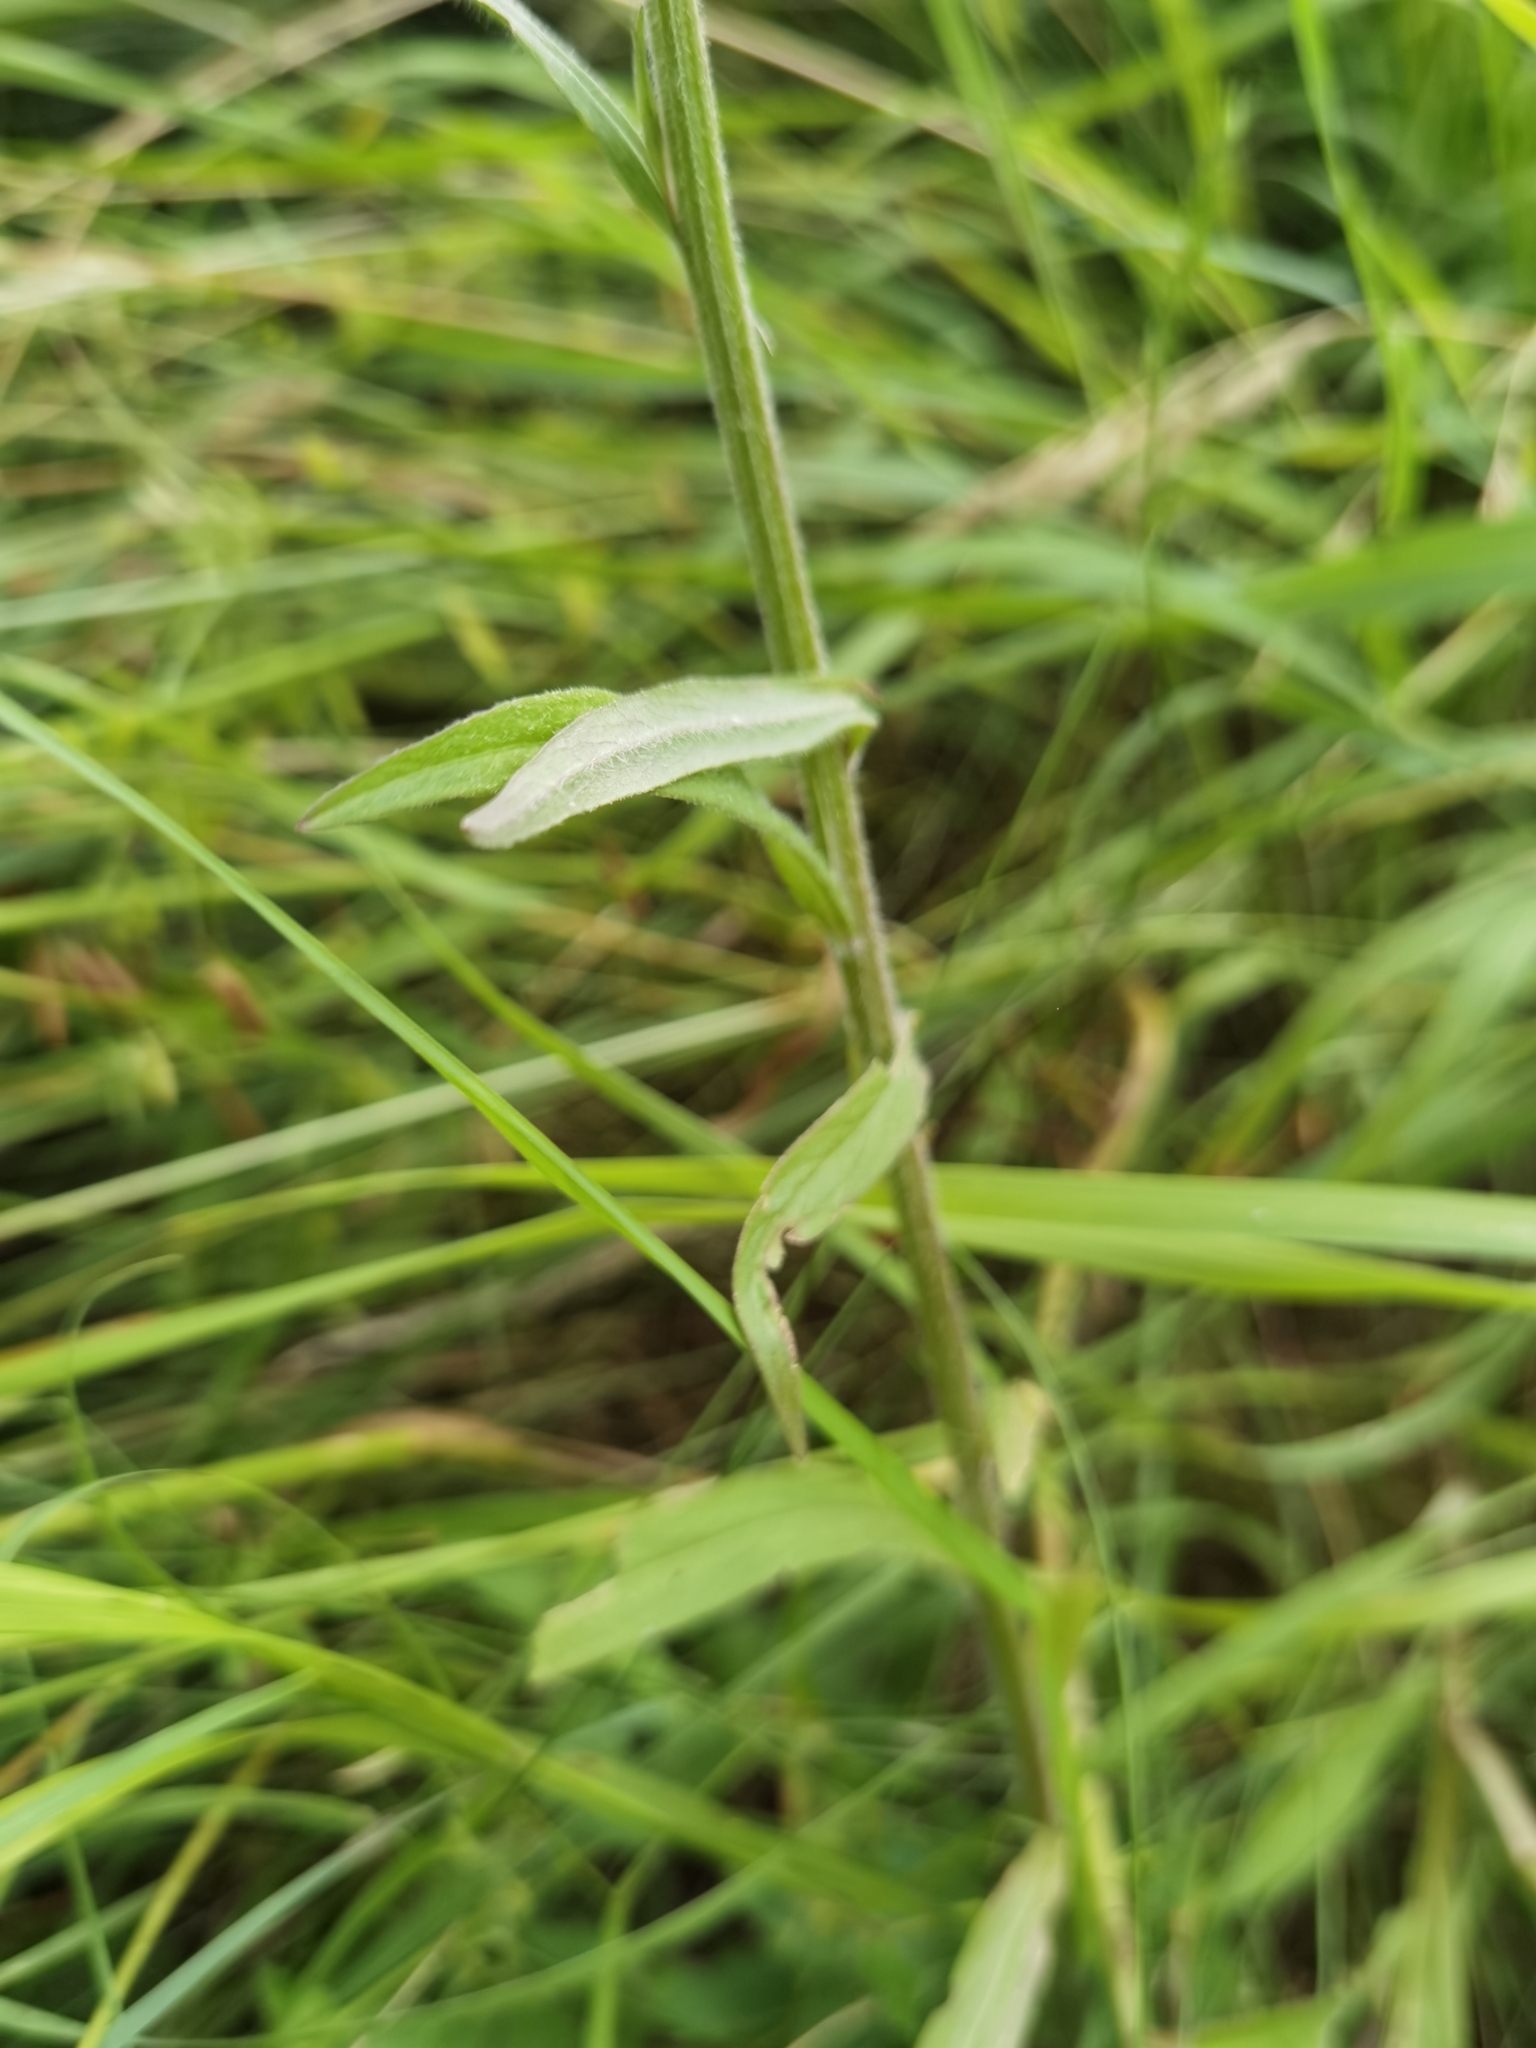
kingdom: Plantae
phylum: Tracheophyta
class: Magnoliopsida
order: Asterales
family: Campanulaceae
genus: Campanula
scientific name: Campanula rapunculus
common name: Rampion bellflower
